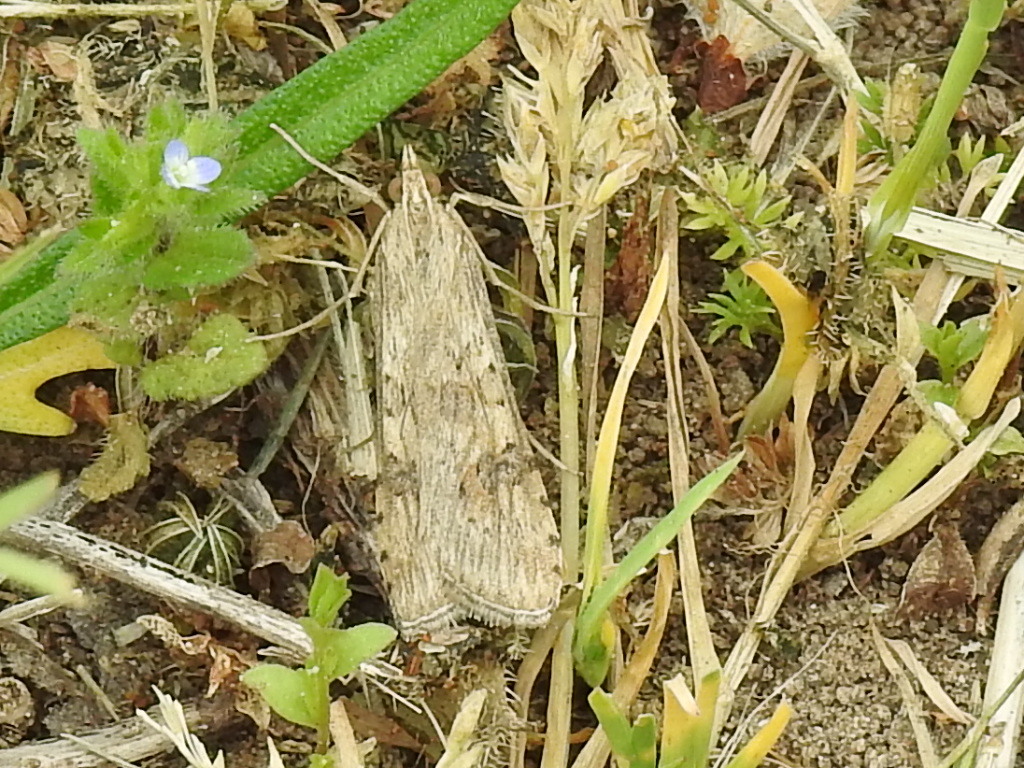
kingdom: Animalia
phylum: Arthropoda
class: Insecta
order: Lepidoptera
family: Crambidae
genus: Nomophila
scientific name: Nomophila nearctica
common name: American rush veneer
